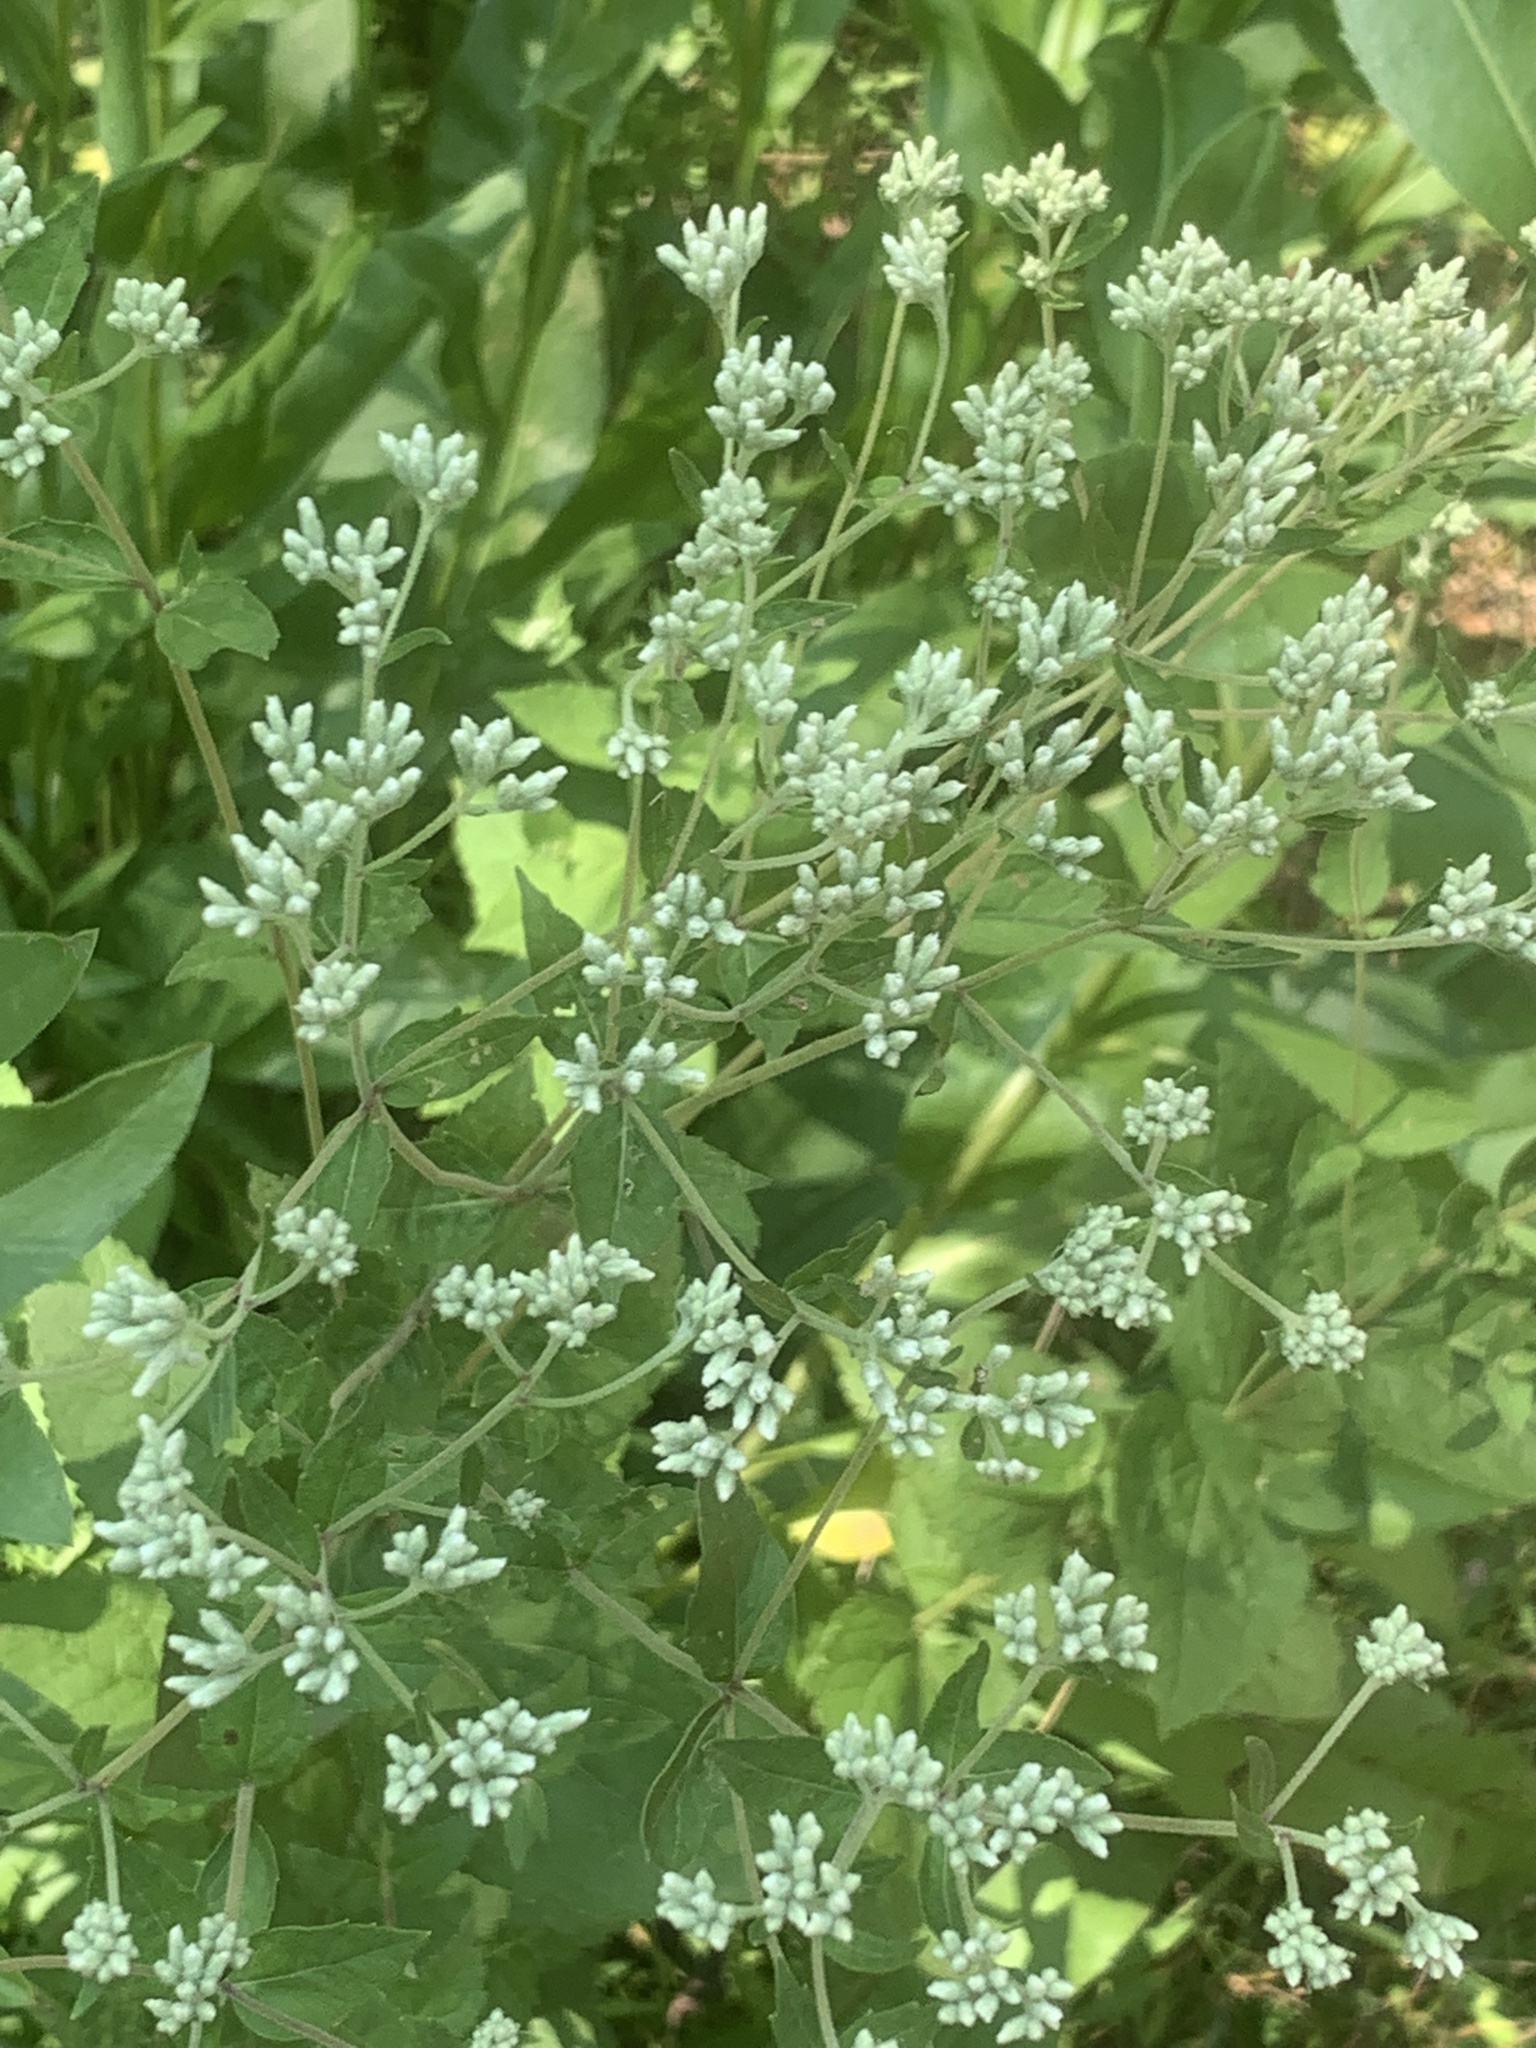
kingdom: Plantae
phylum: Tracheophyta
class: Magnoliopsida
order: Asterales
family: Asteraceae
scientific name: Asteraceae
